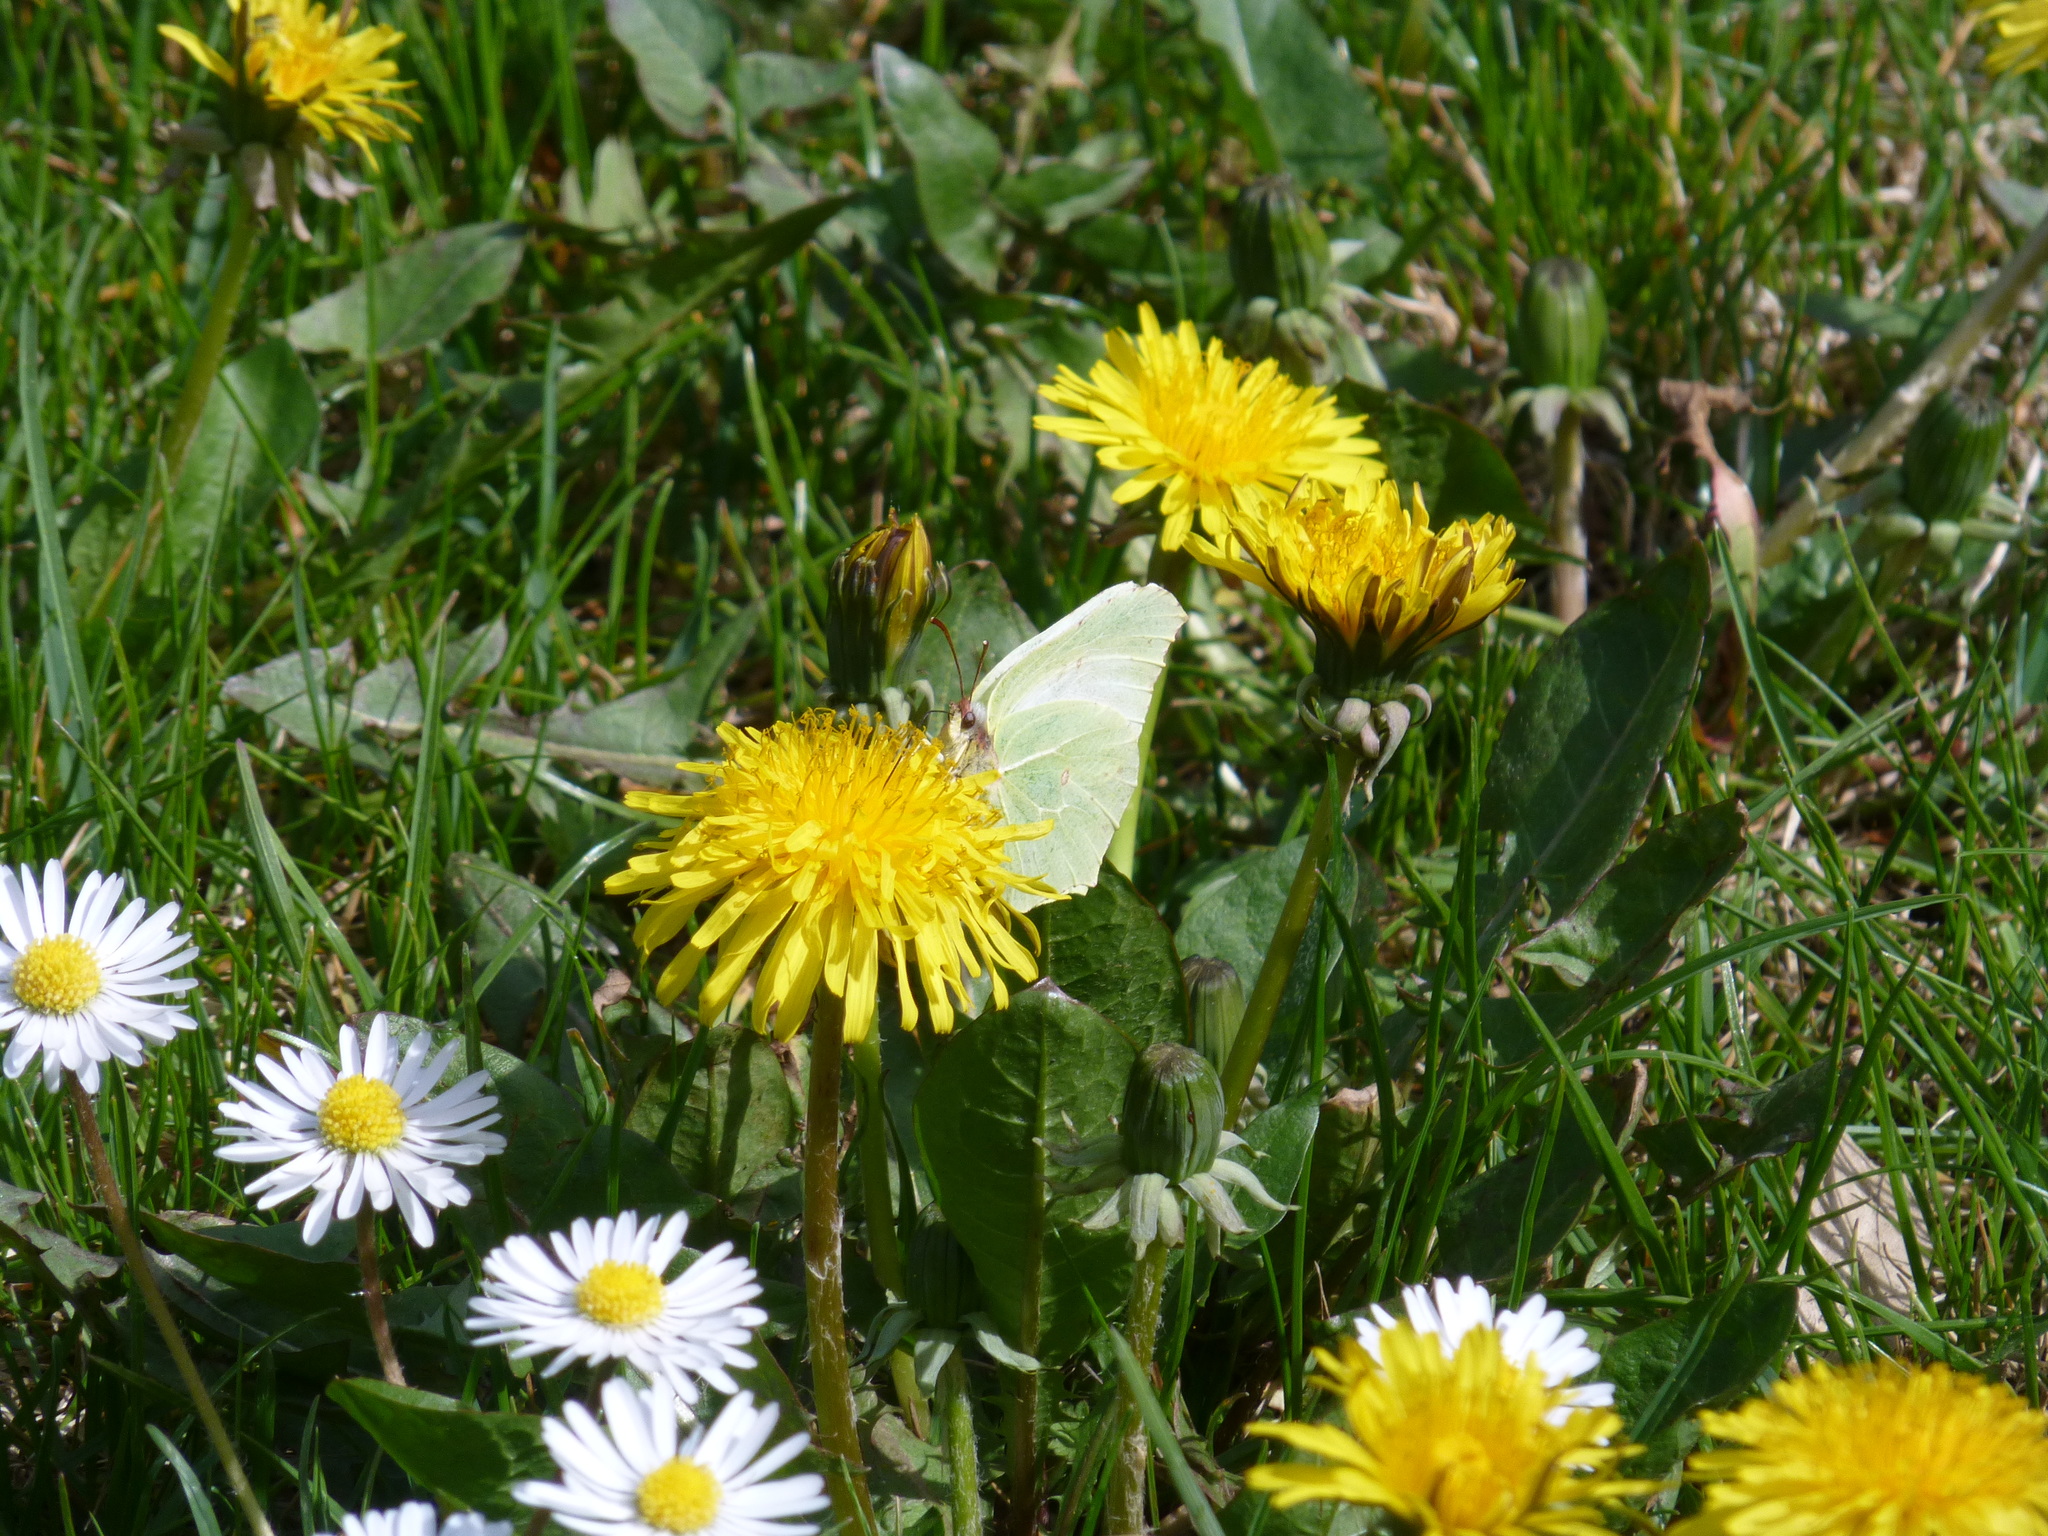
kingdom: Animalia
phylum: Arthropoda
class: Insecta
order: Lepidoptera
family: Pieridae
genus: Gonepteryx
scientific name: Gonepteryx rhamni
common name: Brimstone
